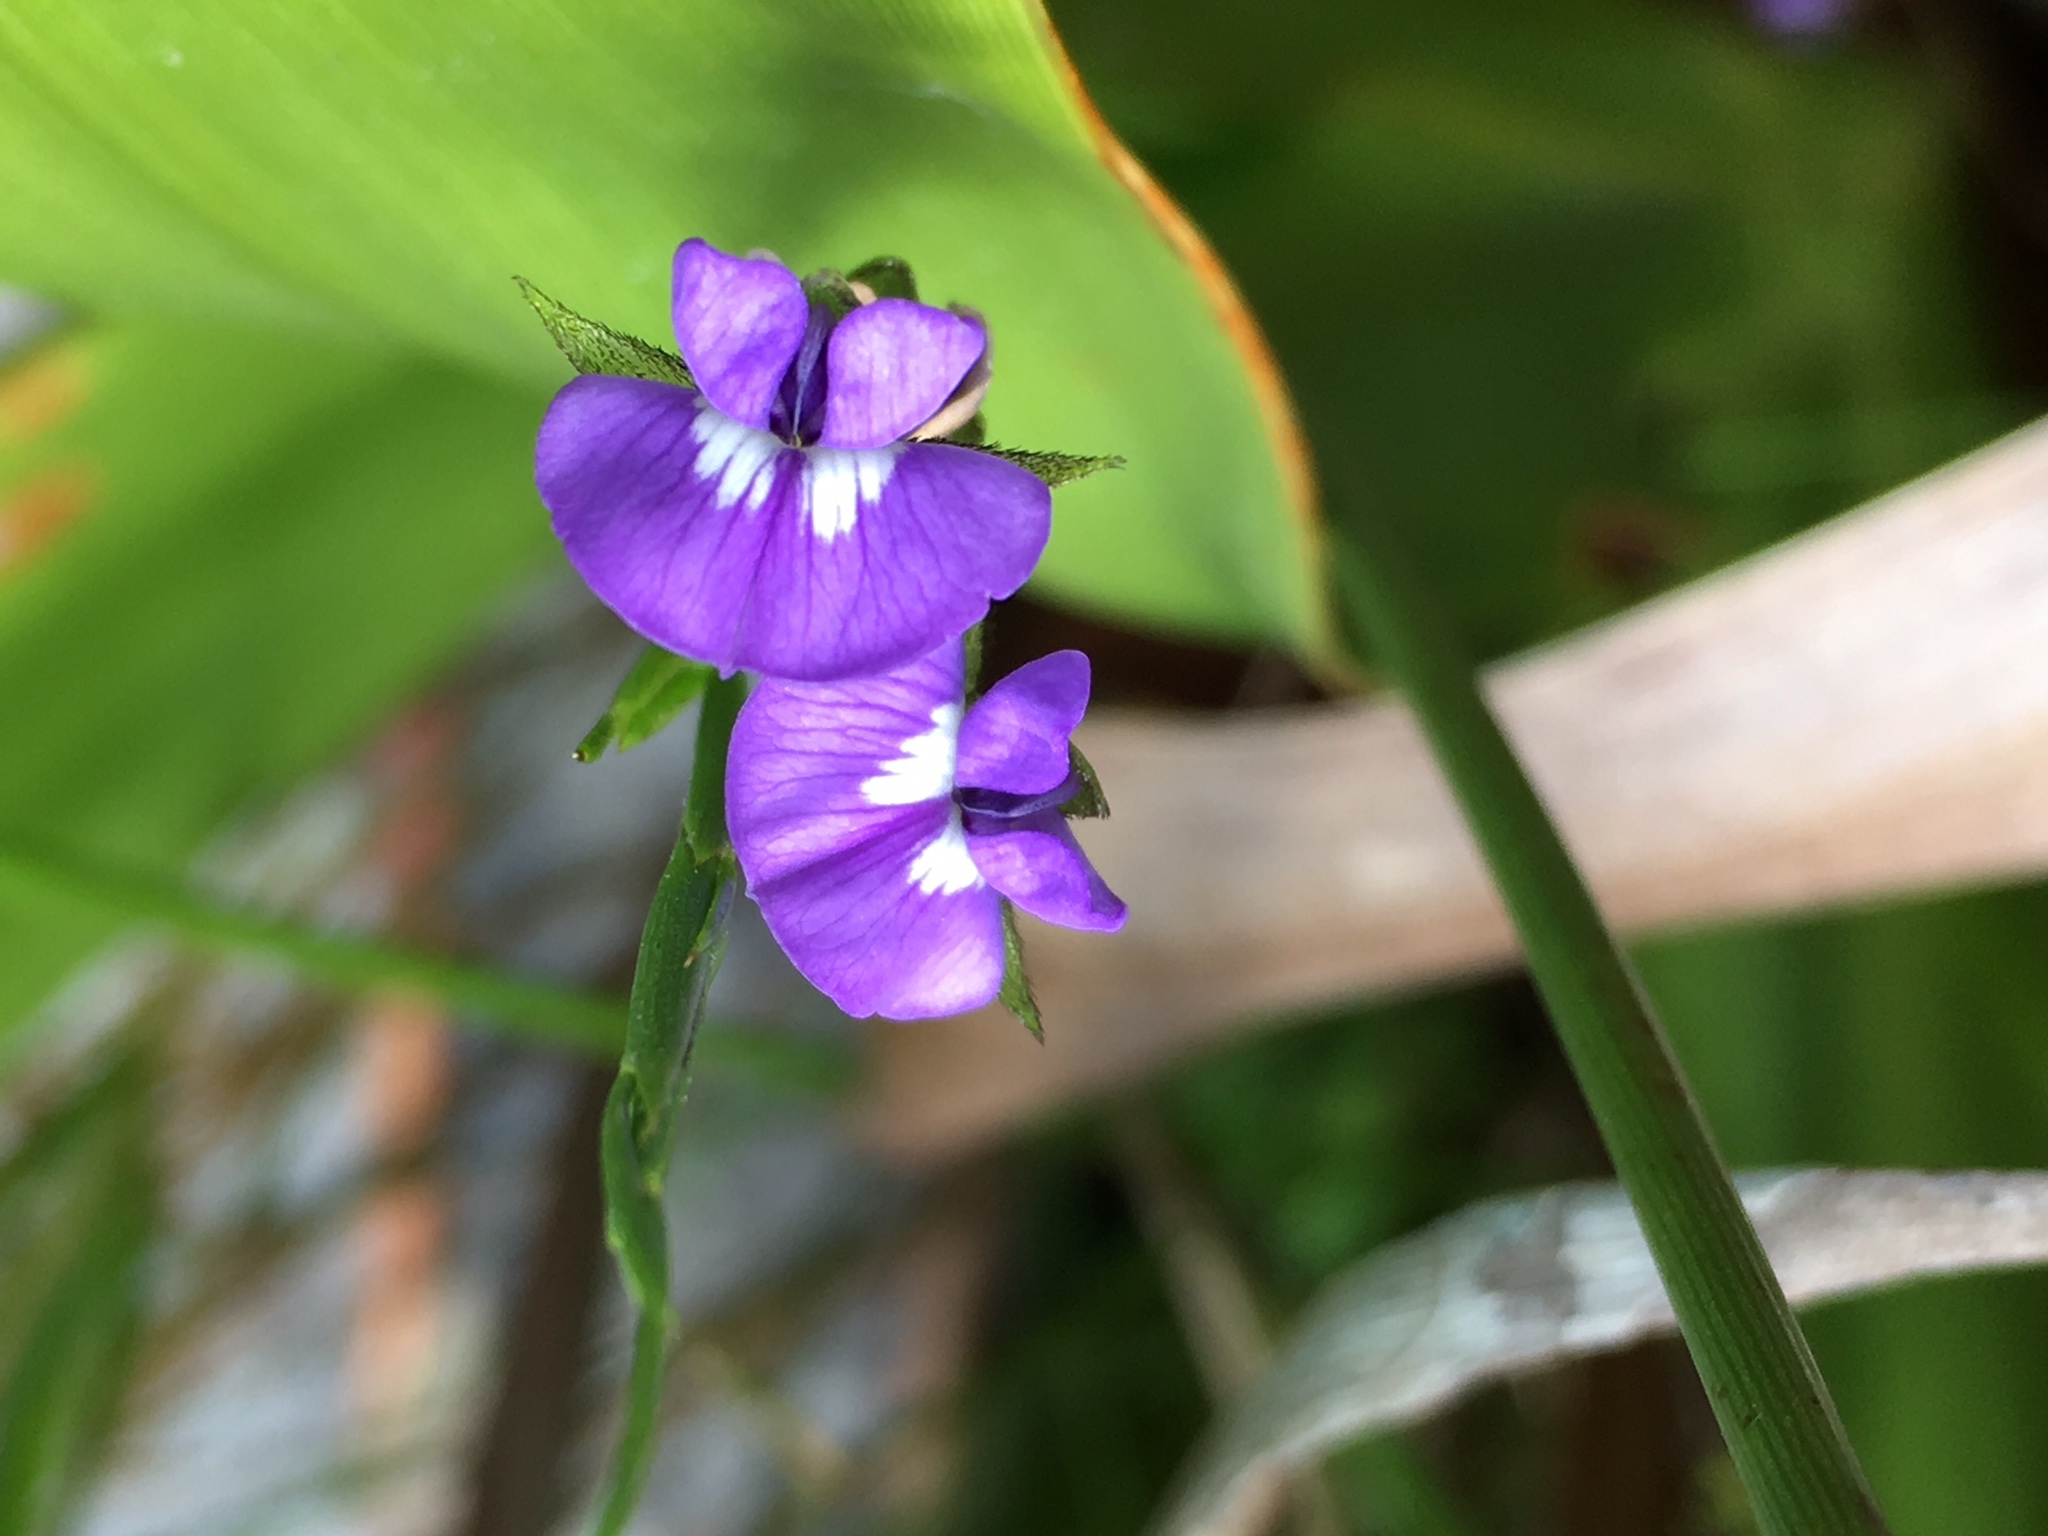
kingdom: Plantae
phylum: Tracheophyta
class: Magnoliopsida
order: Fabales
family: Fabaceae
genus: Psoralea
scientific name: Psoralea fascicularis
